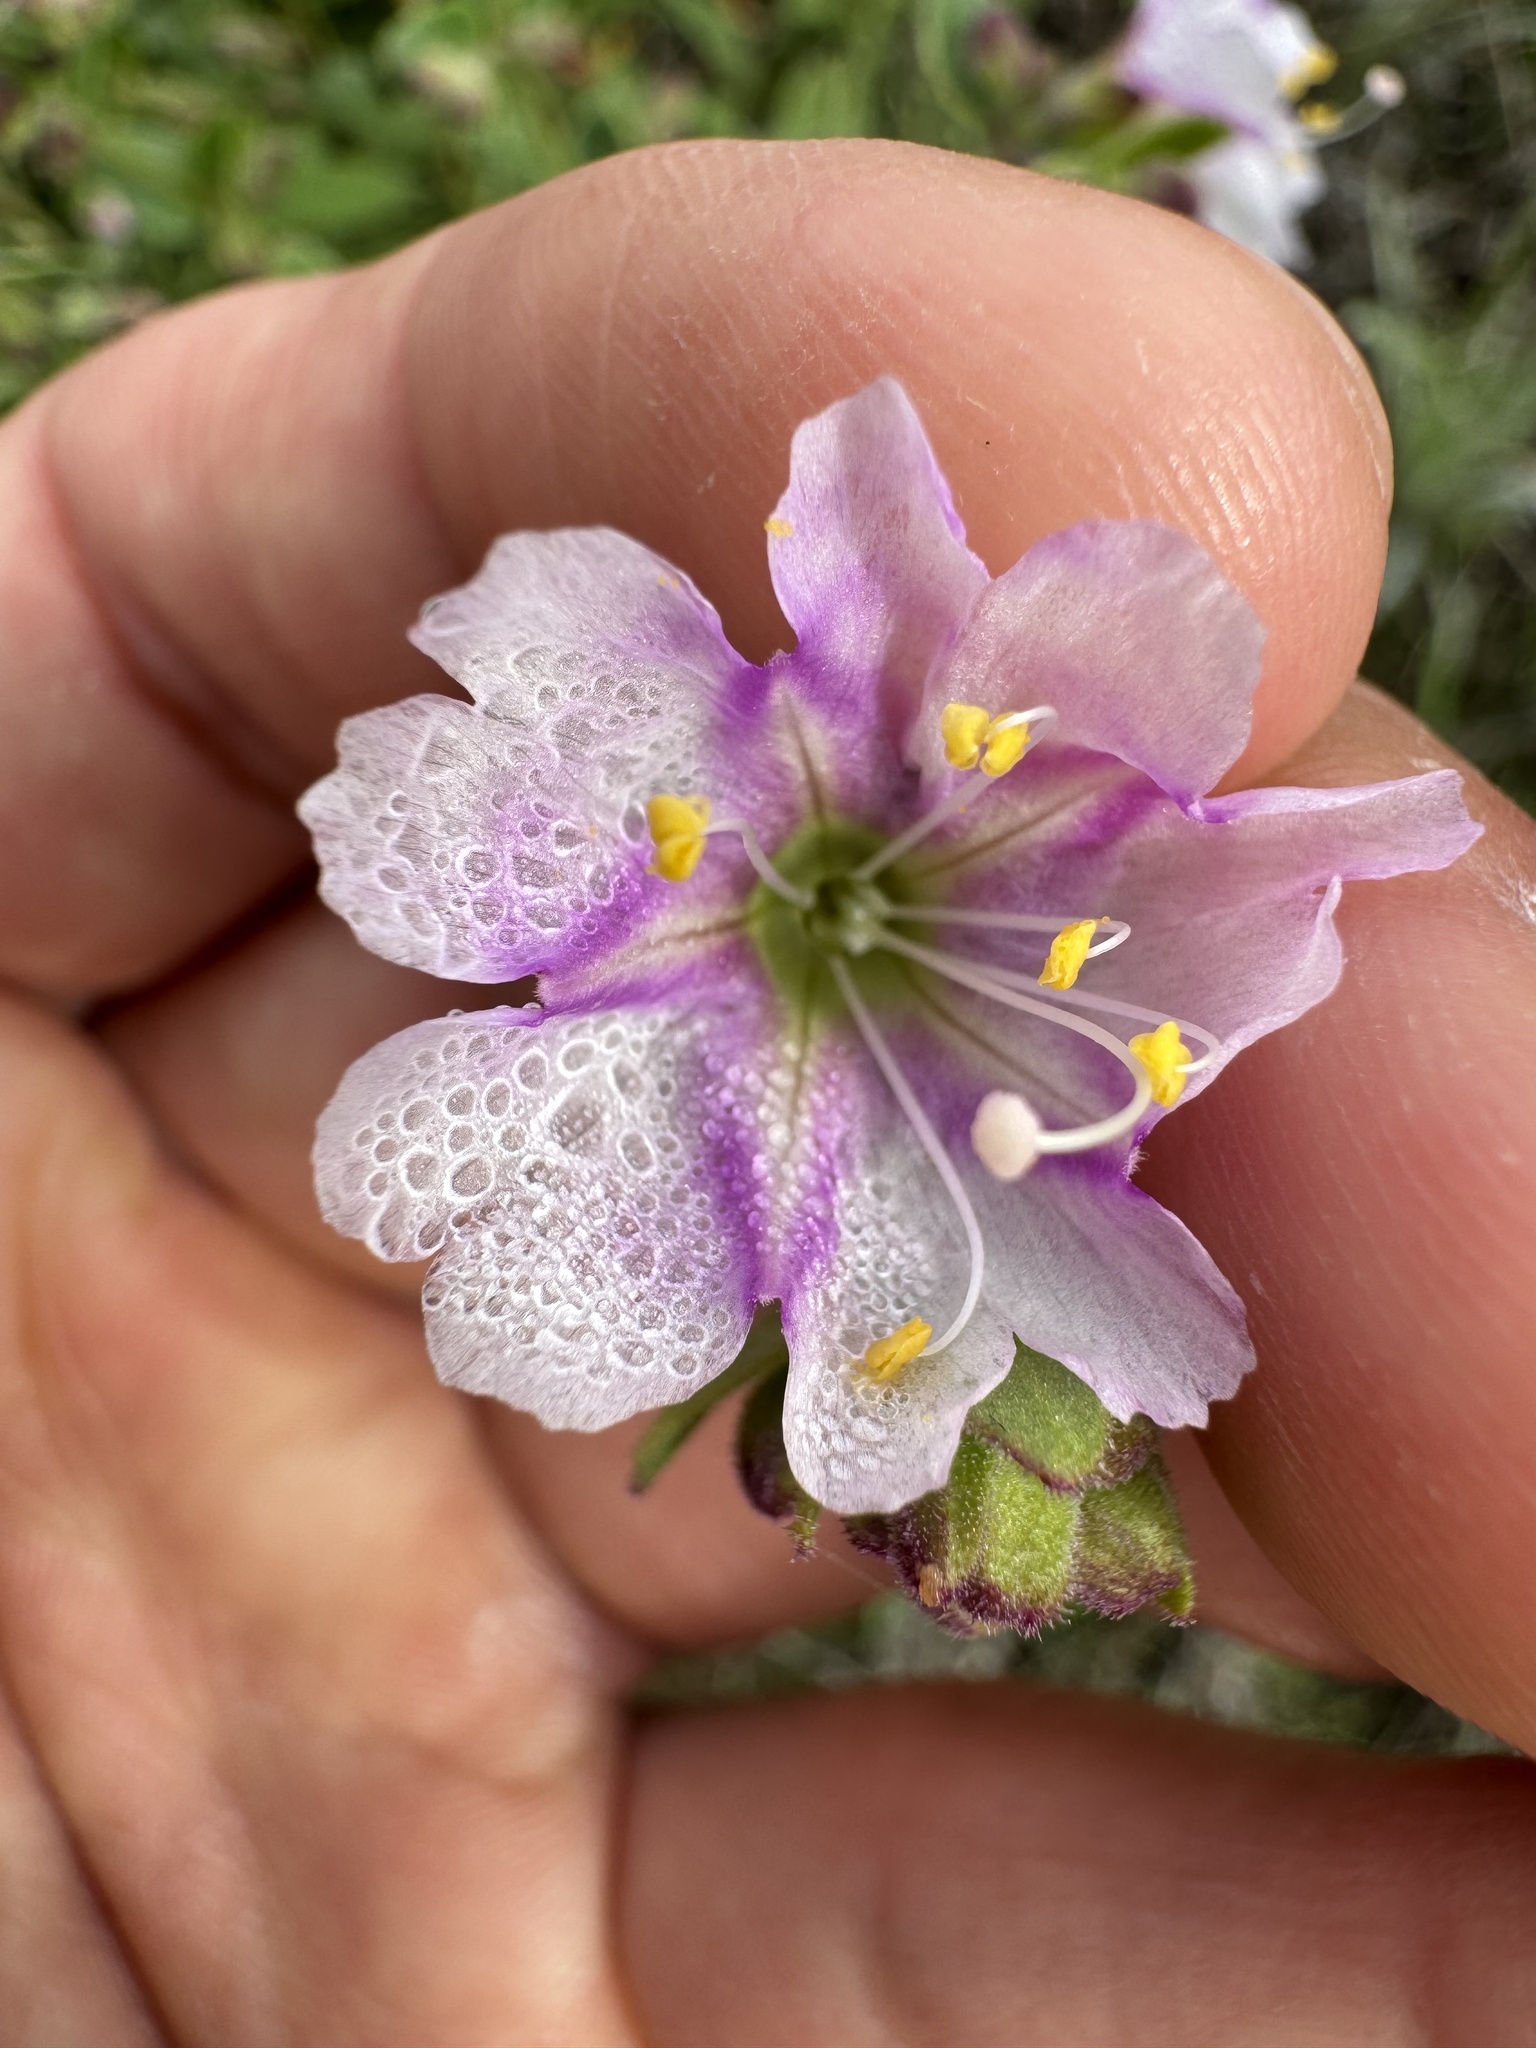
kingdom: Plantae
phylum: Tracheophyta
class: Magnoliopsida
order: Caryophyllales
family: Nyctaginaceae
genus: Mirabilis
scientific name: Mirabilis laevis
